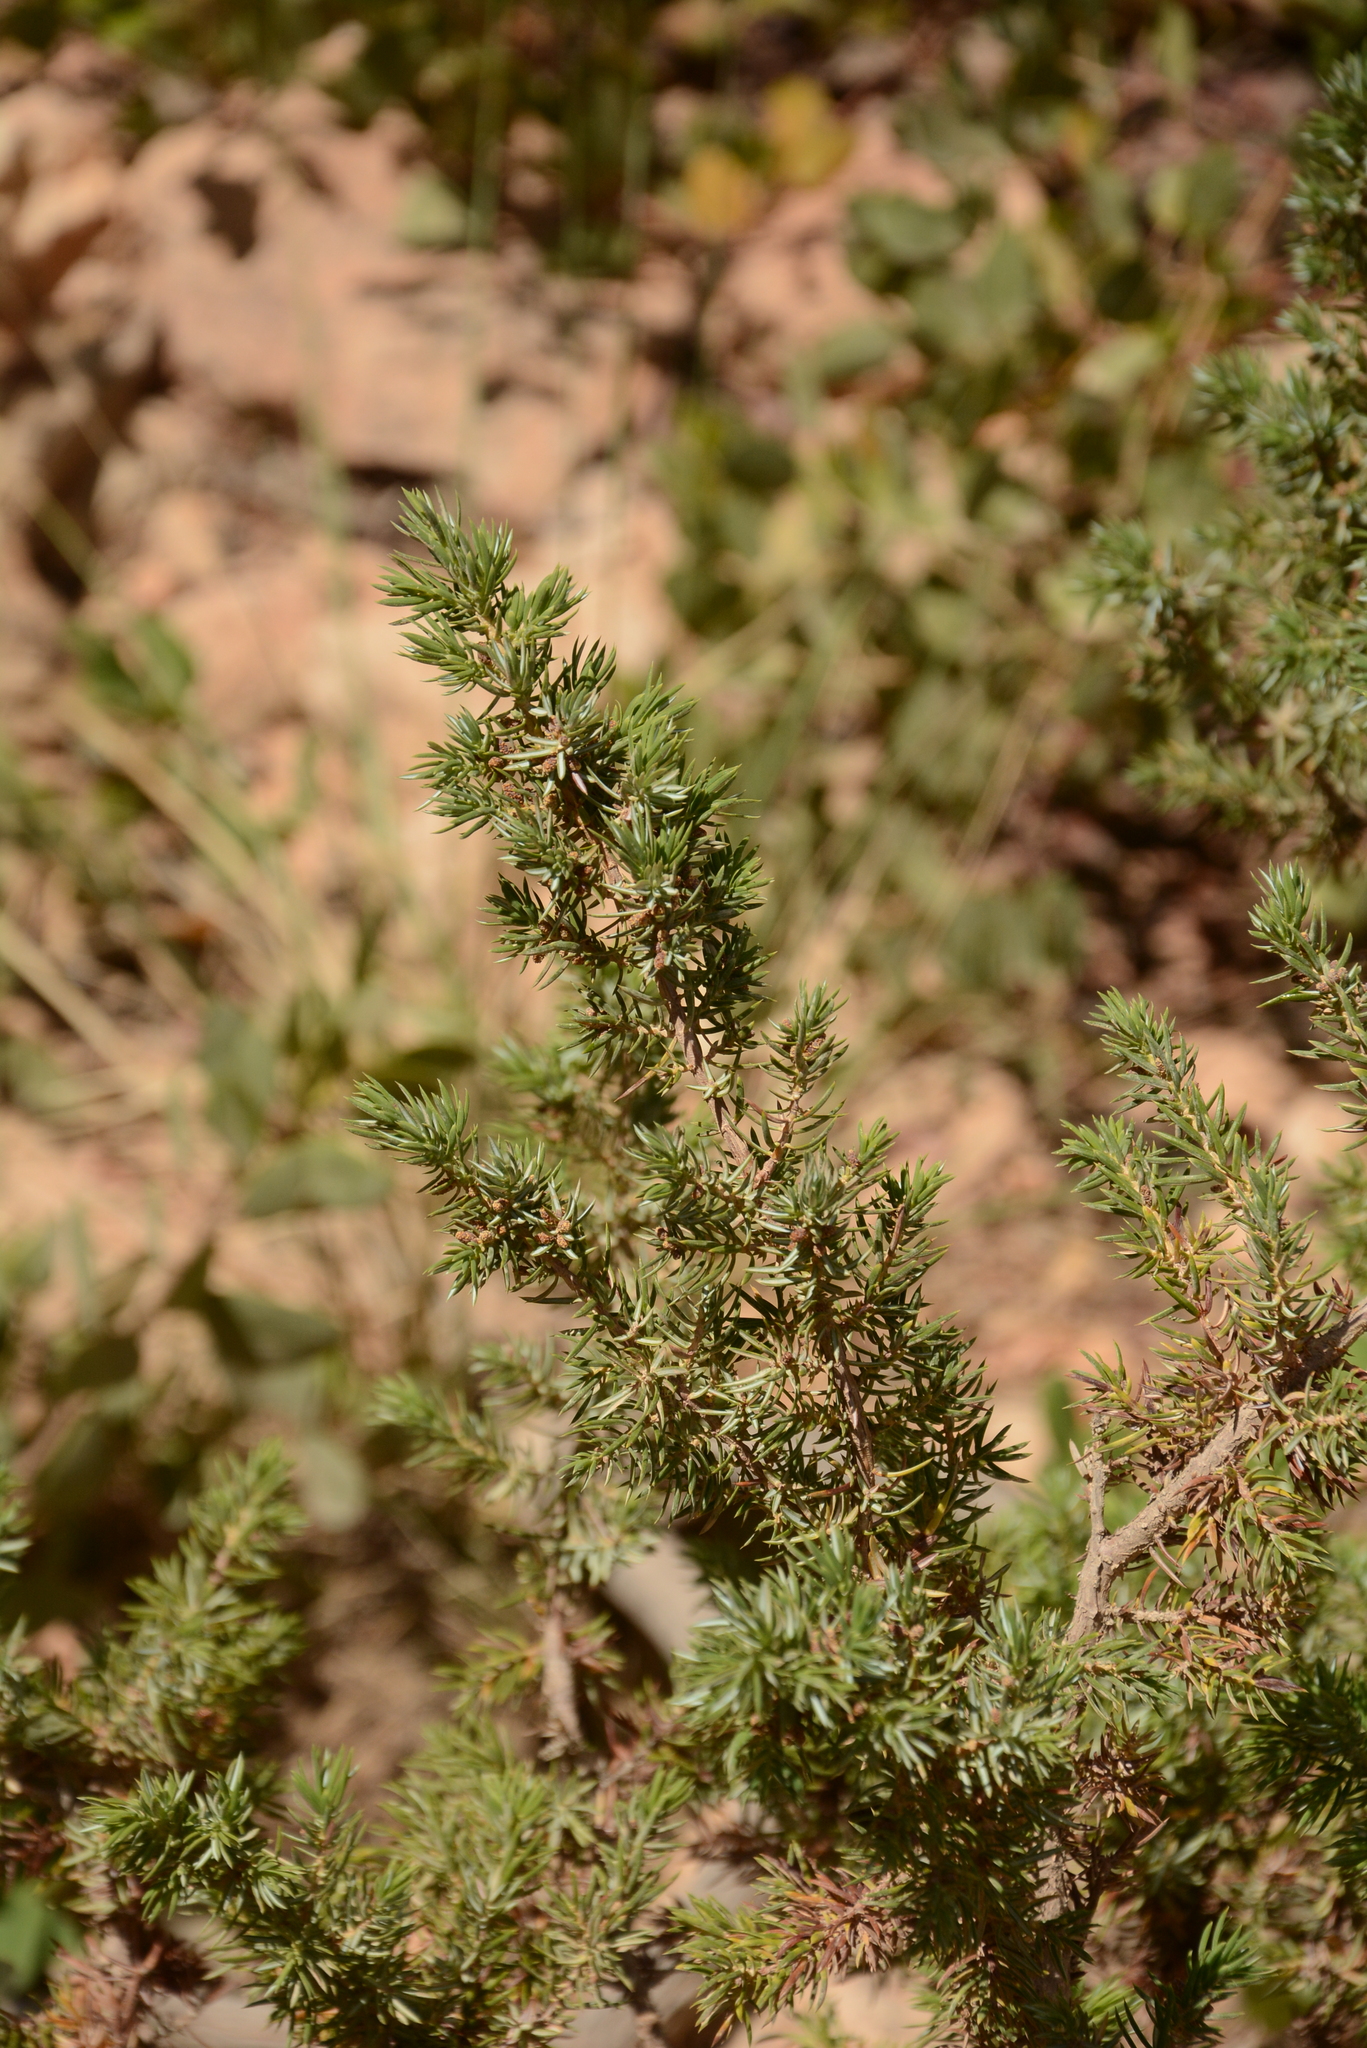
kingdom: Plantae
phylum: Tracheophyta
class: Pinopsida
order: Pinales
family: Cupressaceae
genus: Juniperus
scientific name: Juniperus communis
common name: Common juniper
